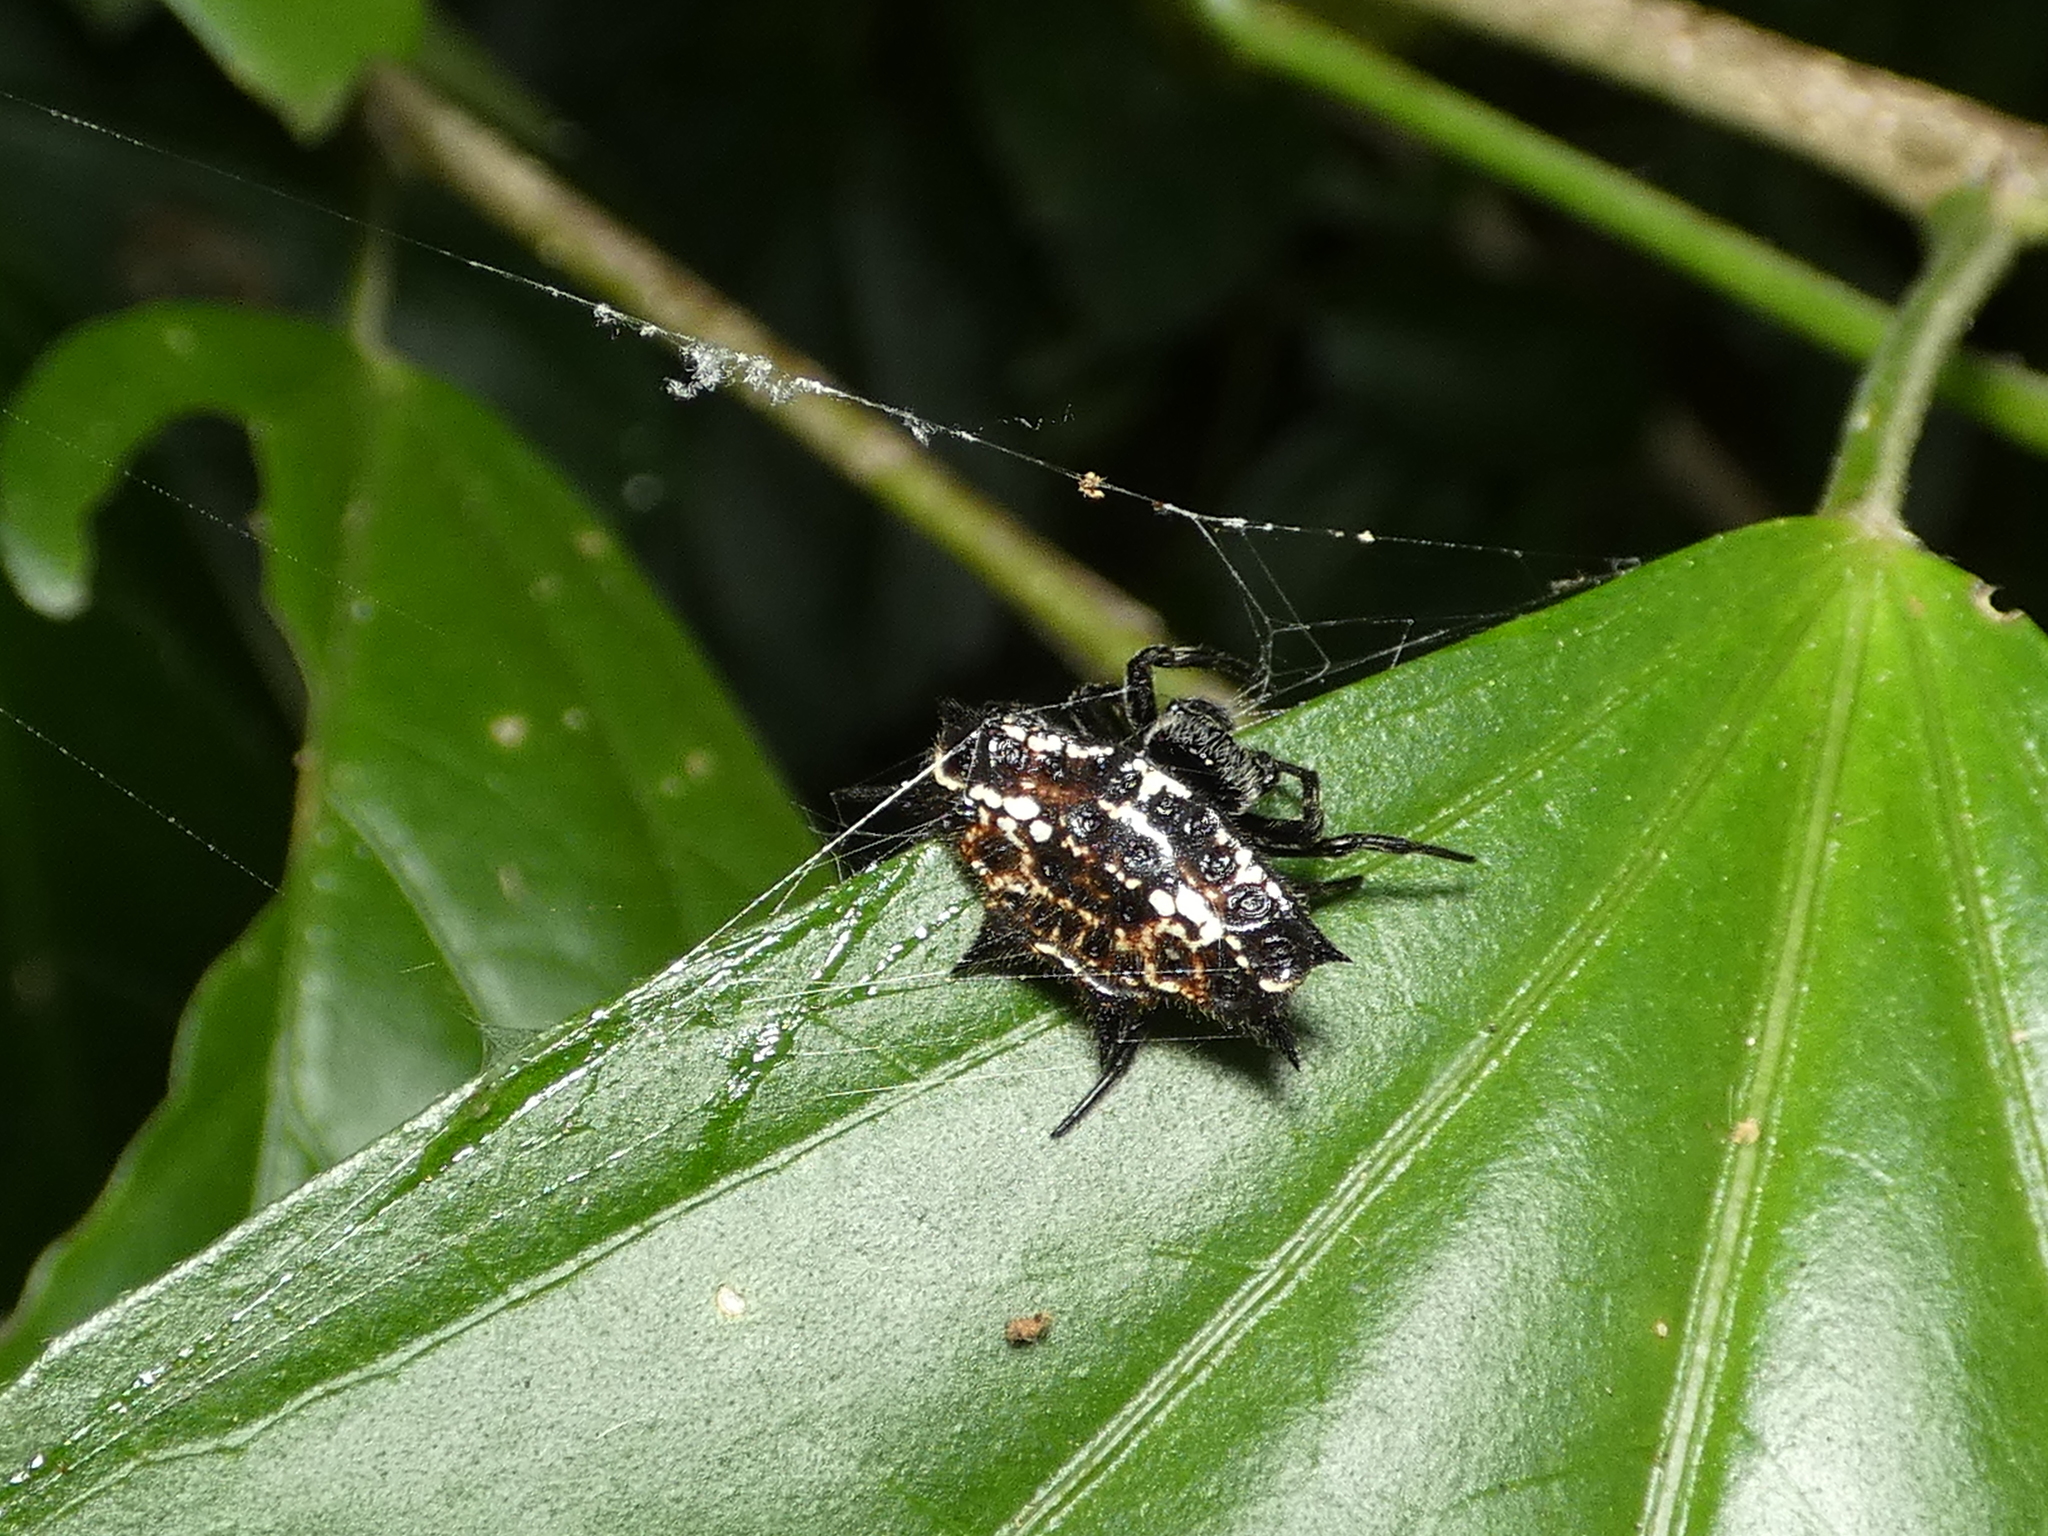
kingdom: Animalia
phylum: Arthropoda
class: Arachnida
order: Araneae
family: Araneidae
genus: Gasteracantha
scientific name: Gasteracantha cancriformis
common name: Orb weavers
